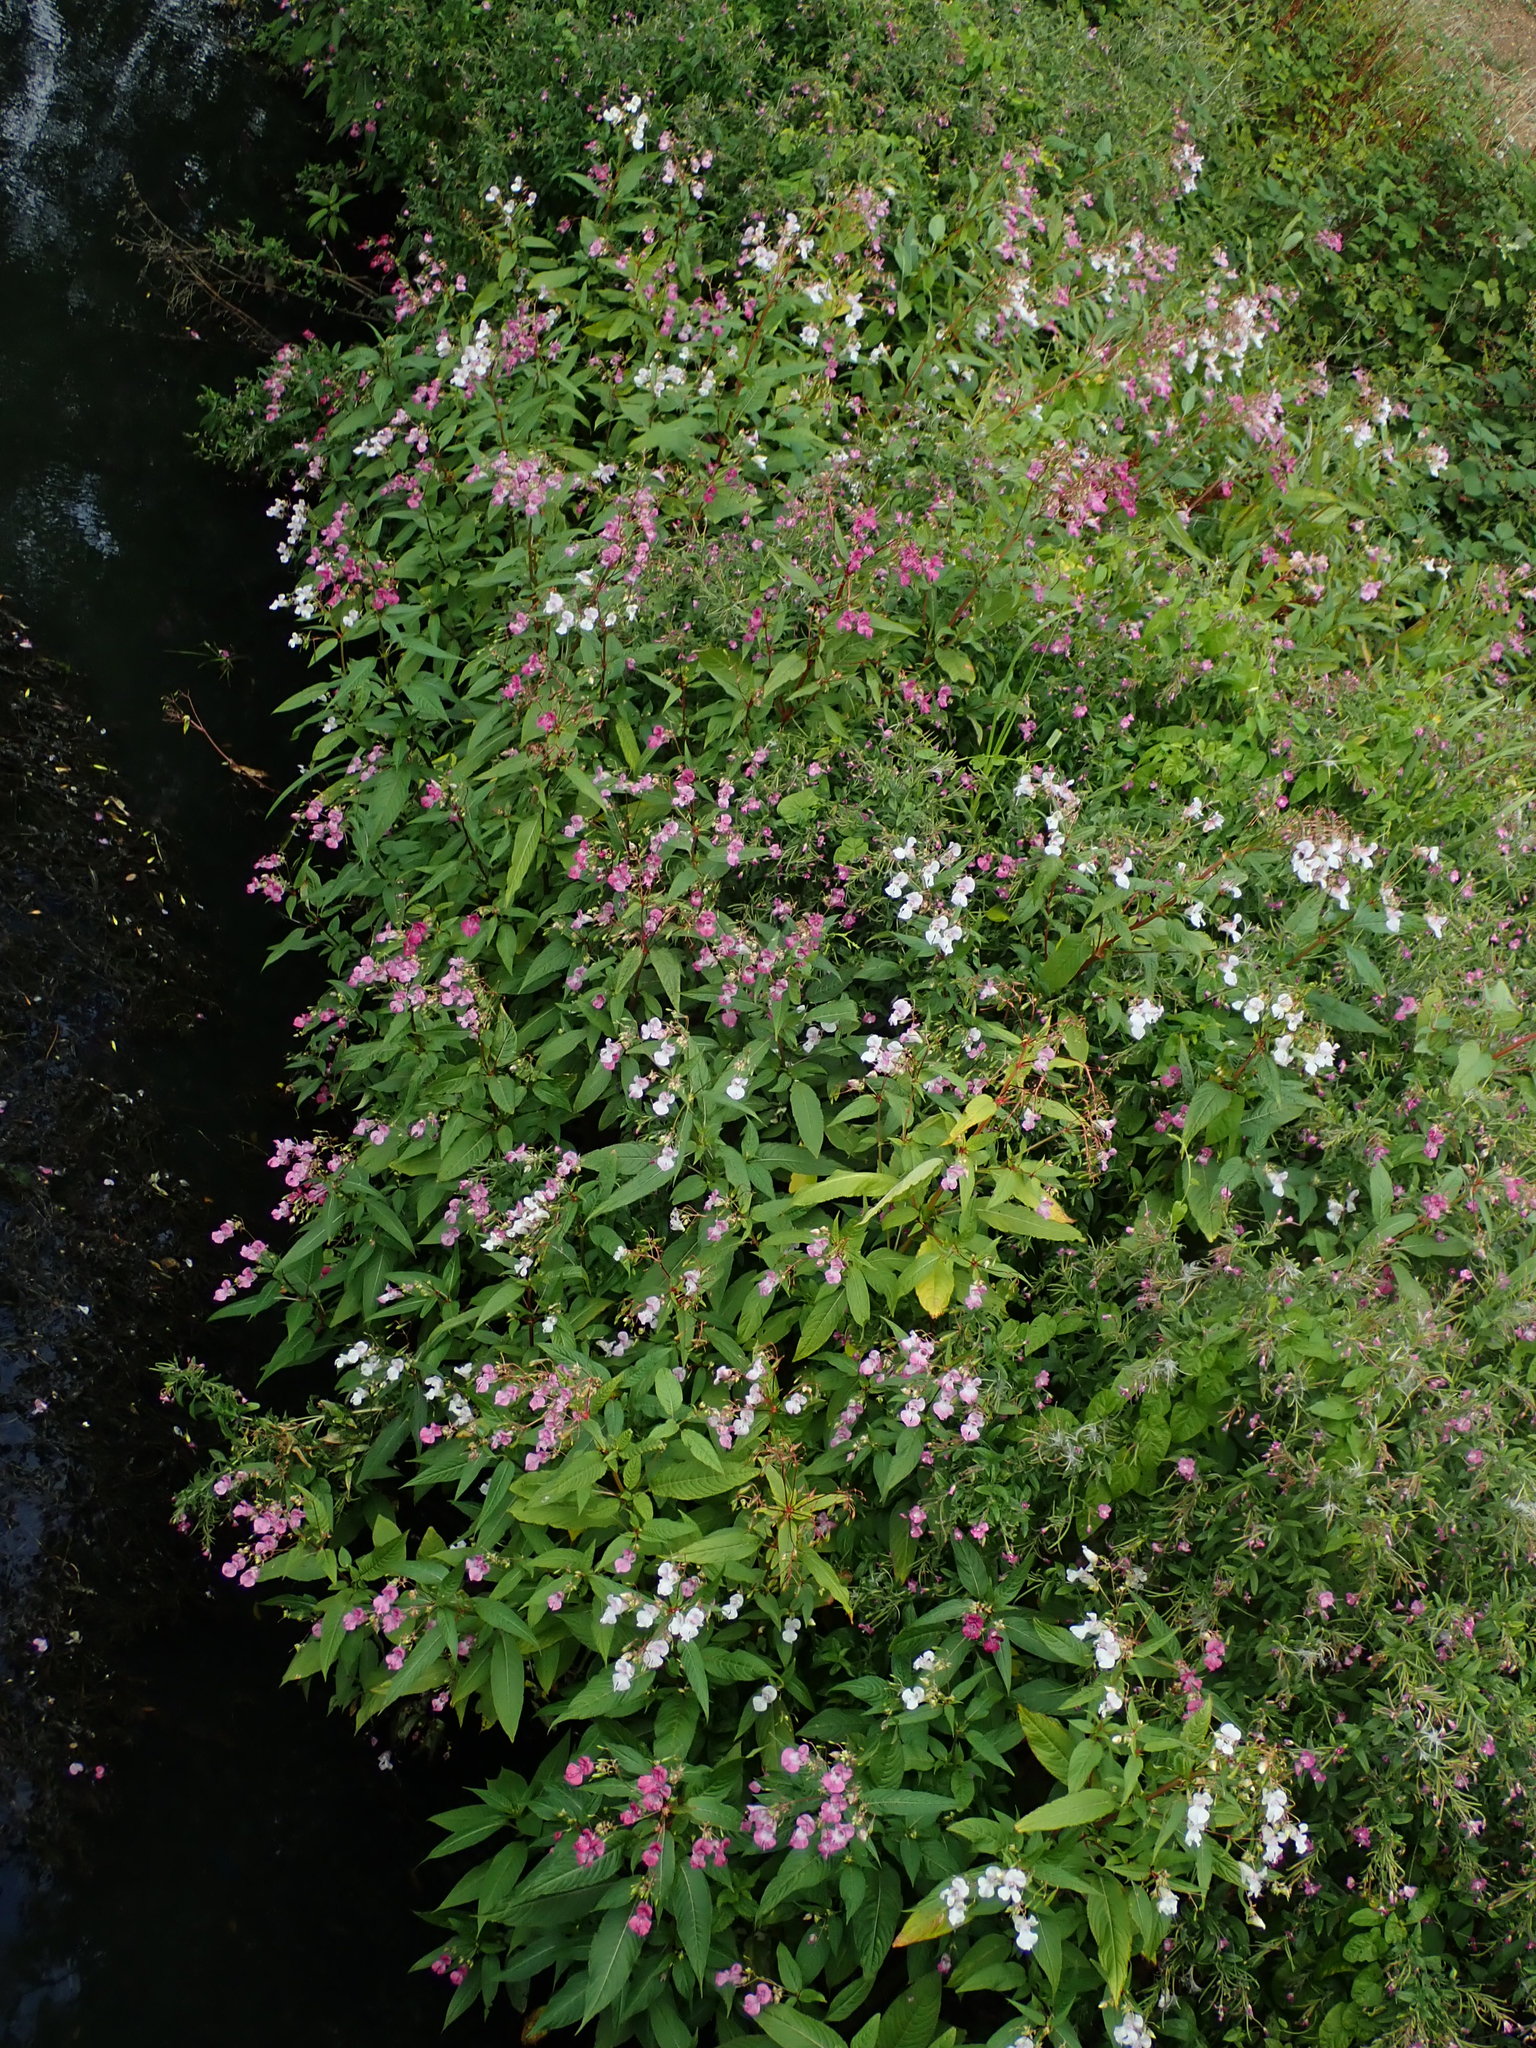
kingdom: Plantae
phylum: Tracheophyta
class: Magnoliopsida
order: Ericales
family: Balsaminaceae
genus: Impatiens
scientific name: Impatiens glandulifera
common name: Himalayan balsam
